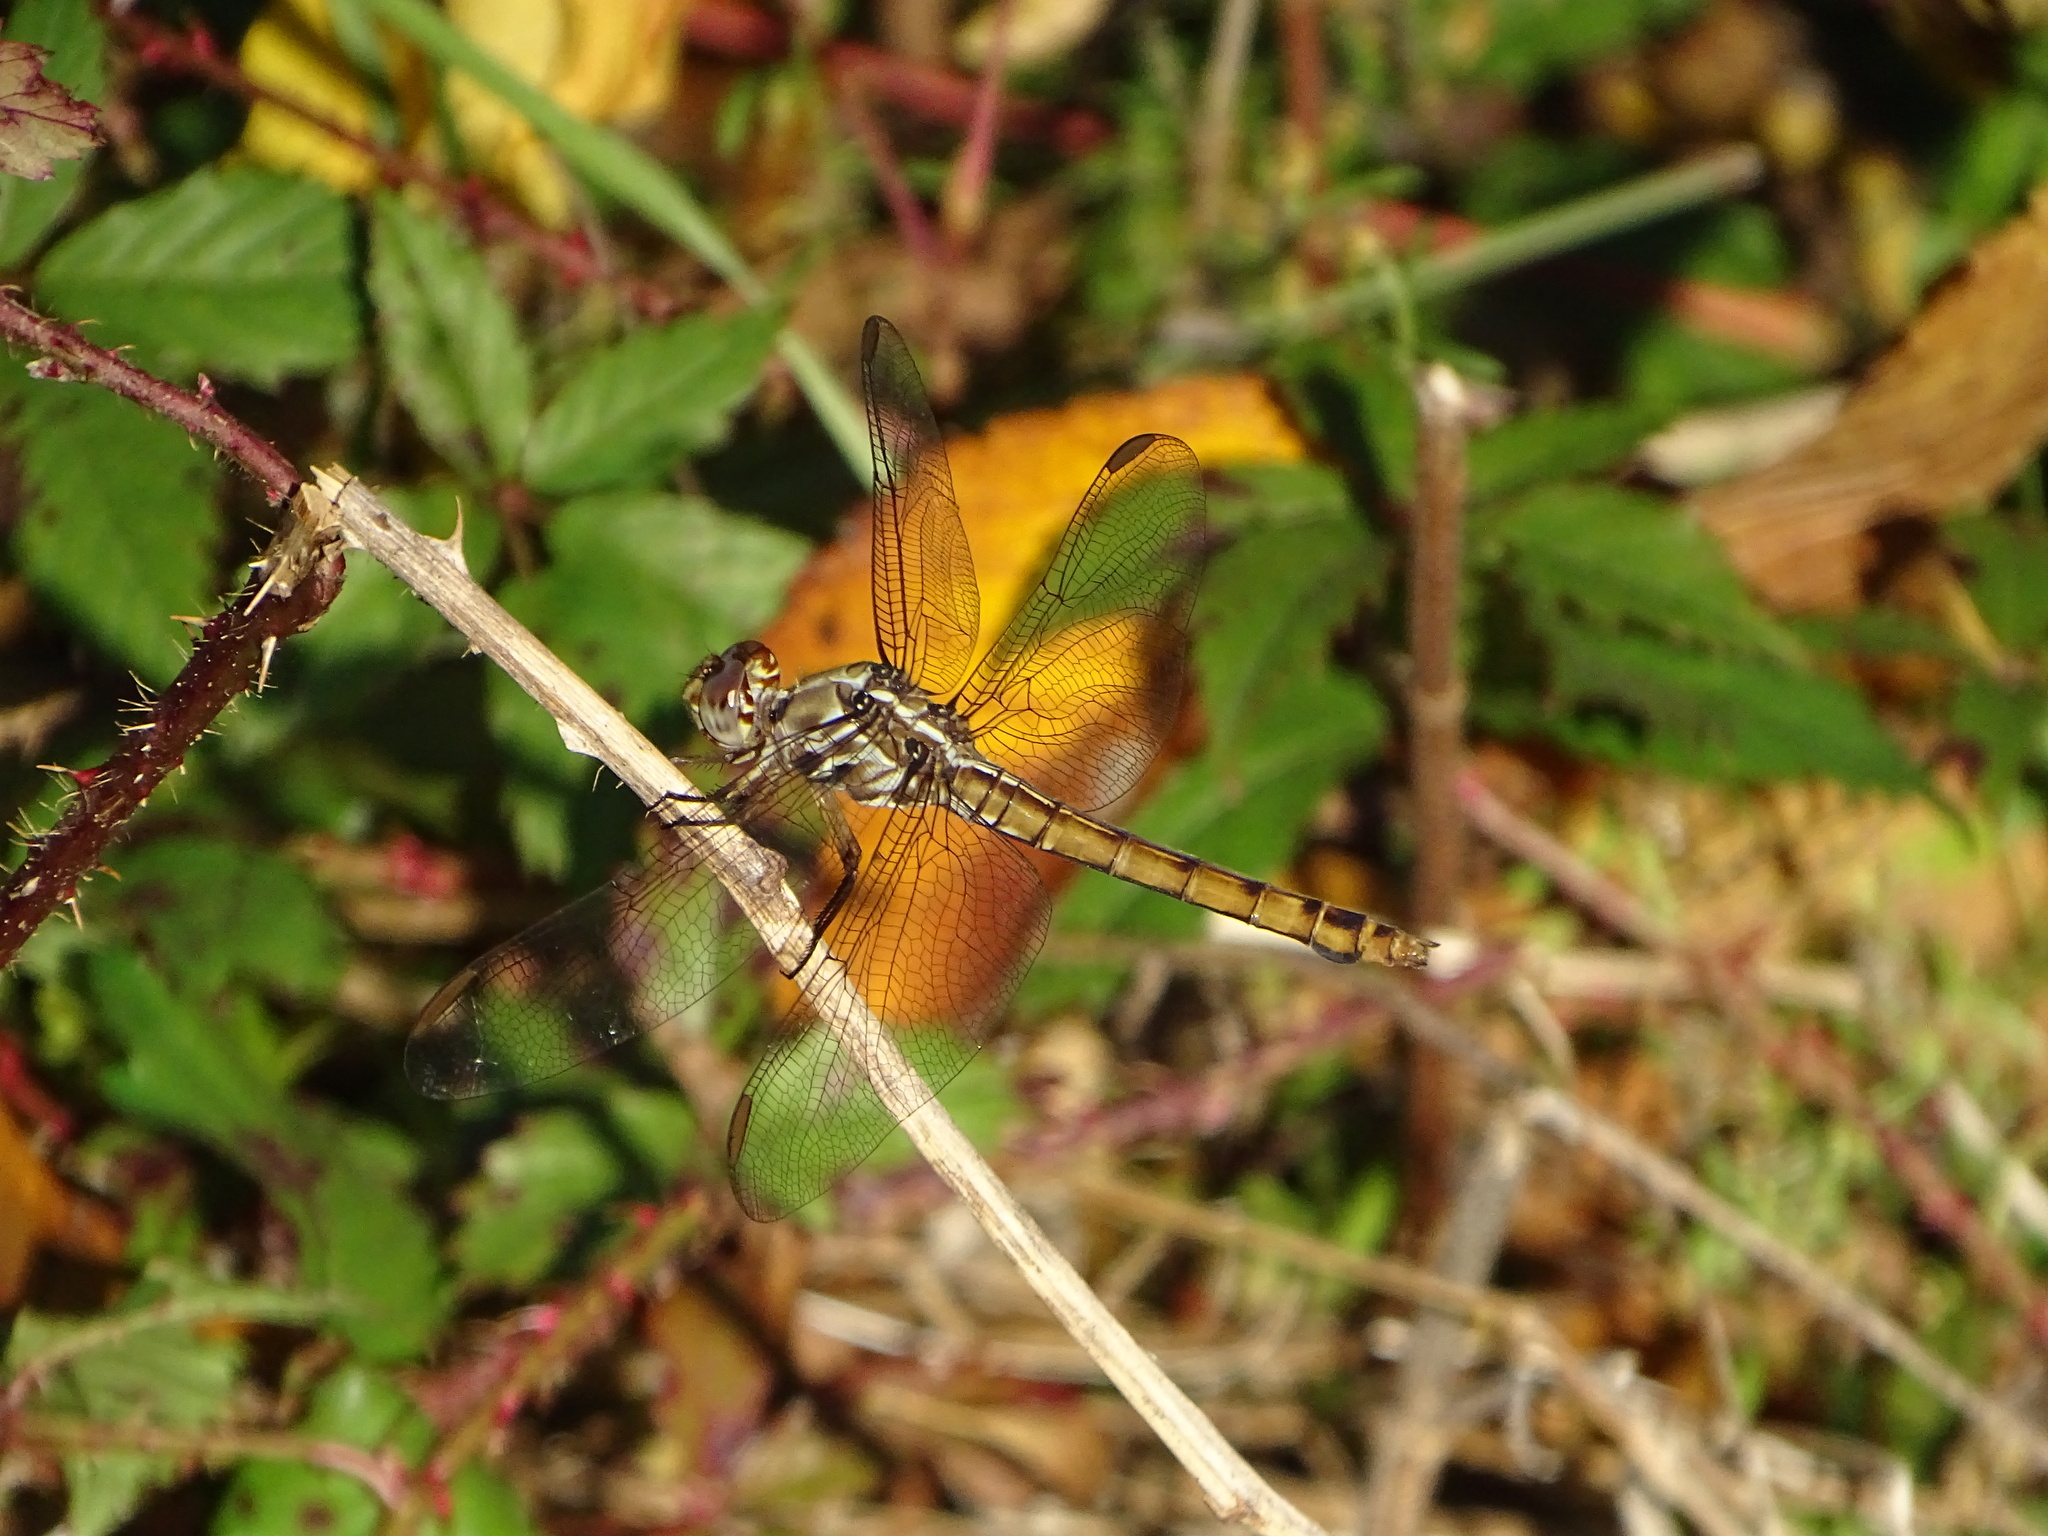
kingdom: Animalia
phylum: Arthropoda
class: Insecta
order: Odonata
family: Libellulidae
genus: Orthemis
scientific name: Orthemis ferruginea
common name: Roseate skimmer
